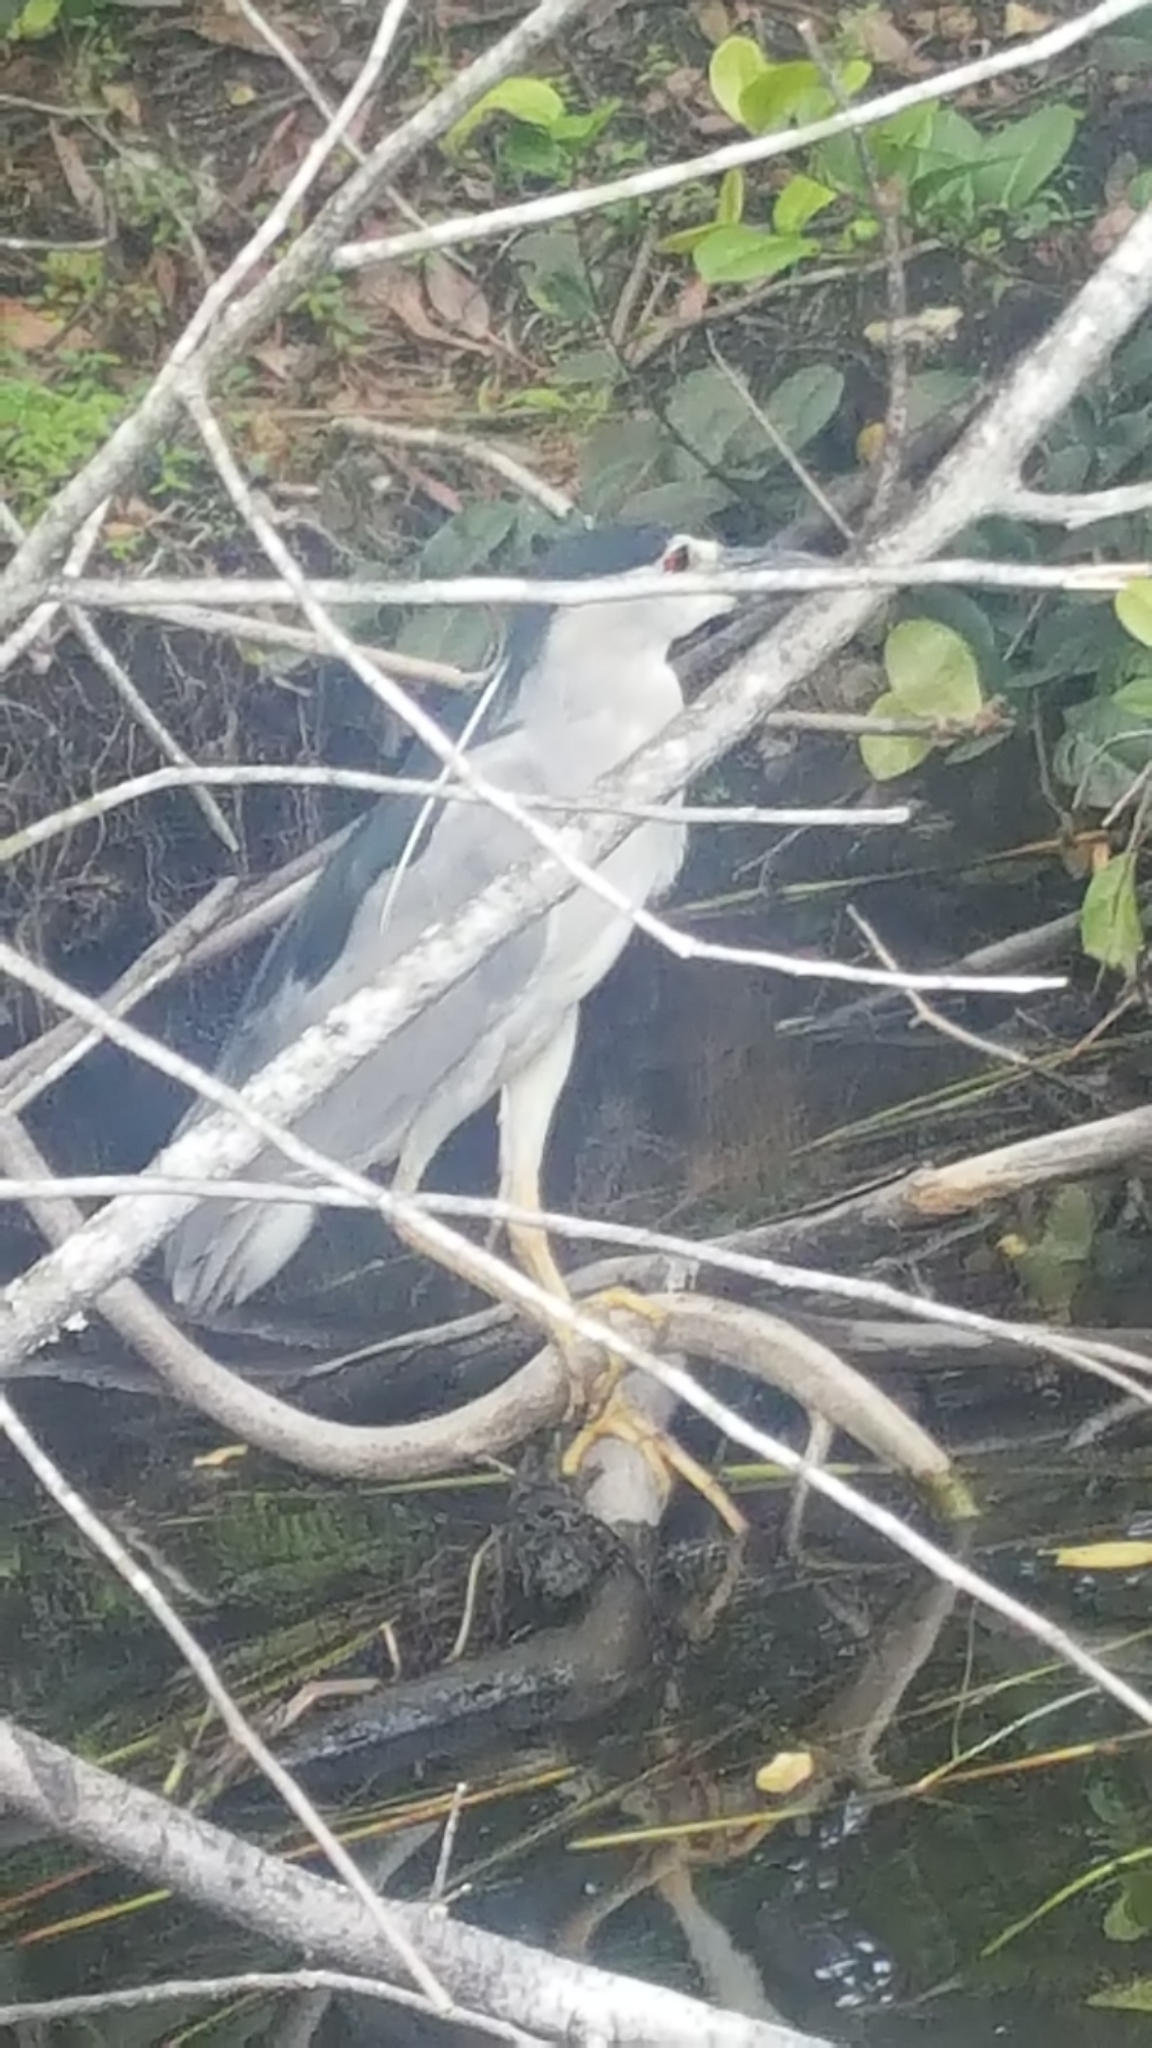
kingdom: Animalia
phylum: Chordata
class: Aves
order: Pelecaniformes
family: Ardeidae
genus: Nycticorax
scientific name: Nycticorax nycticorax
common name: Black-crowned night heron
